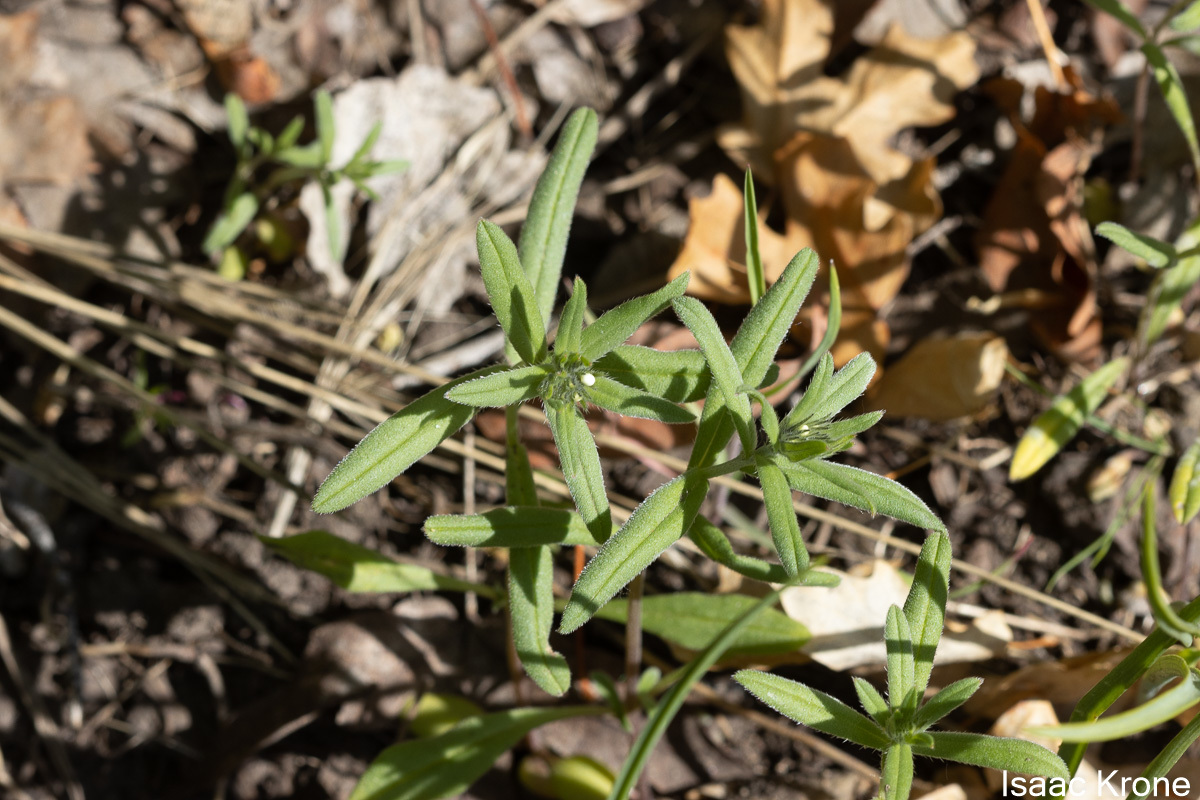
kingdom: Plantae
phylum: Tracheophyta
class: Magnoliopsida
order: Boraginales
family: Boraginaceae
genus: Buglossoides
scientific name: Buglossoides arvensis
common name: Corn gromwell
